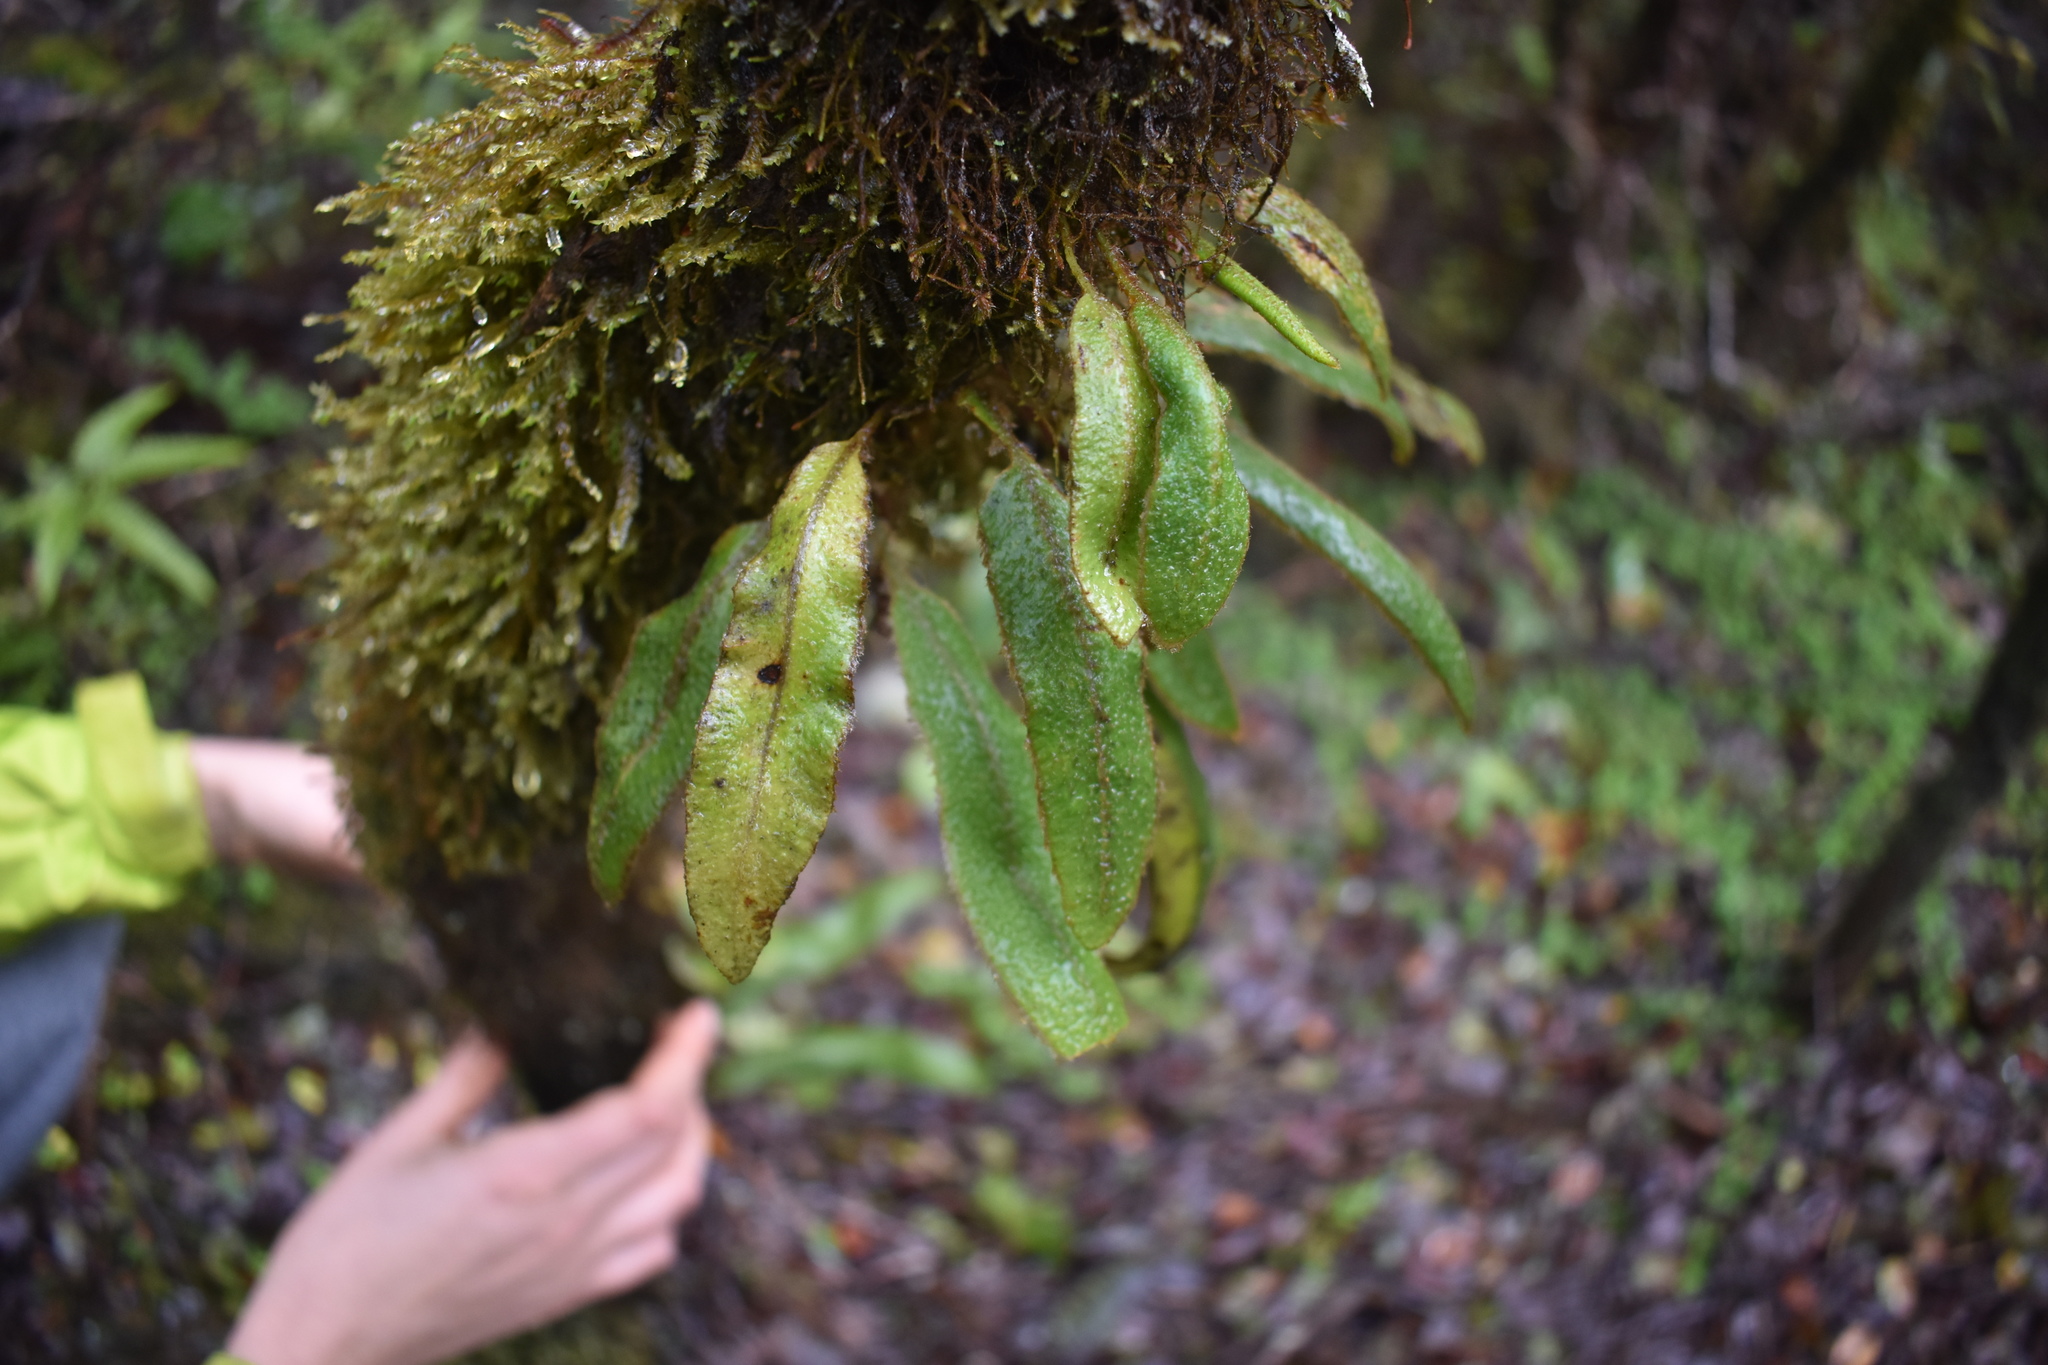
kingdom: Plantae
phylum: Tracheophyta
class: Polypodiopsida
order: Polypodiales
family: Dryopteridaceae
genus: Elaphoglossum
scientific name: Elaphoglossum paleaceum
